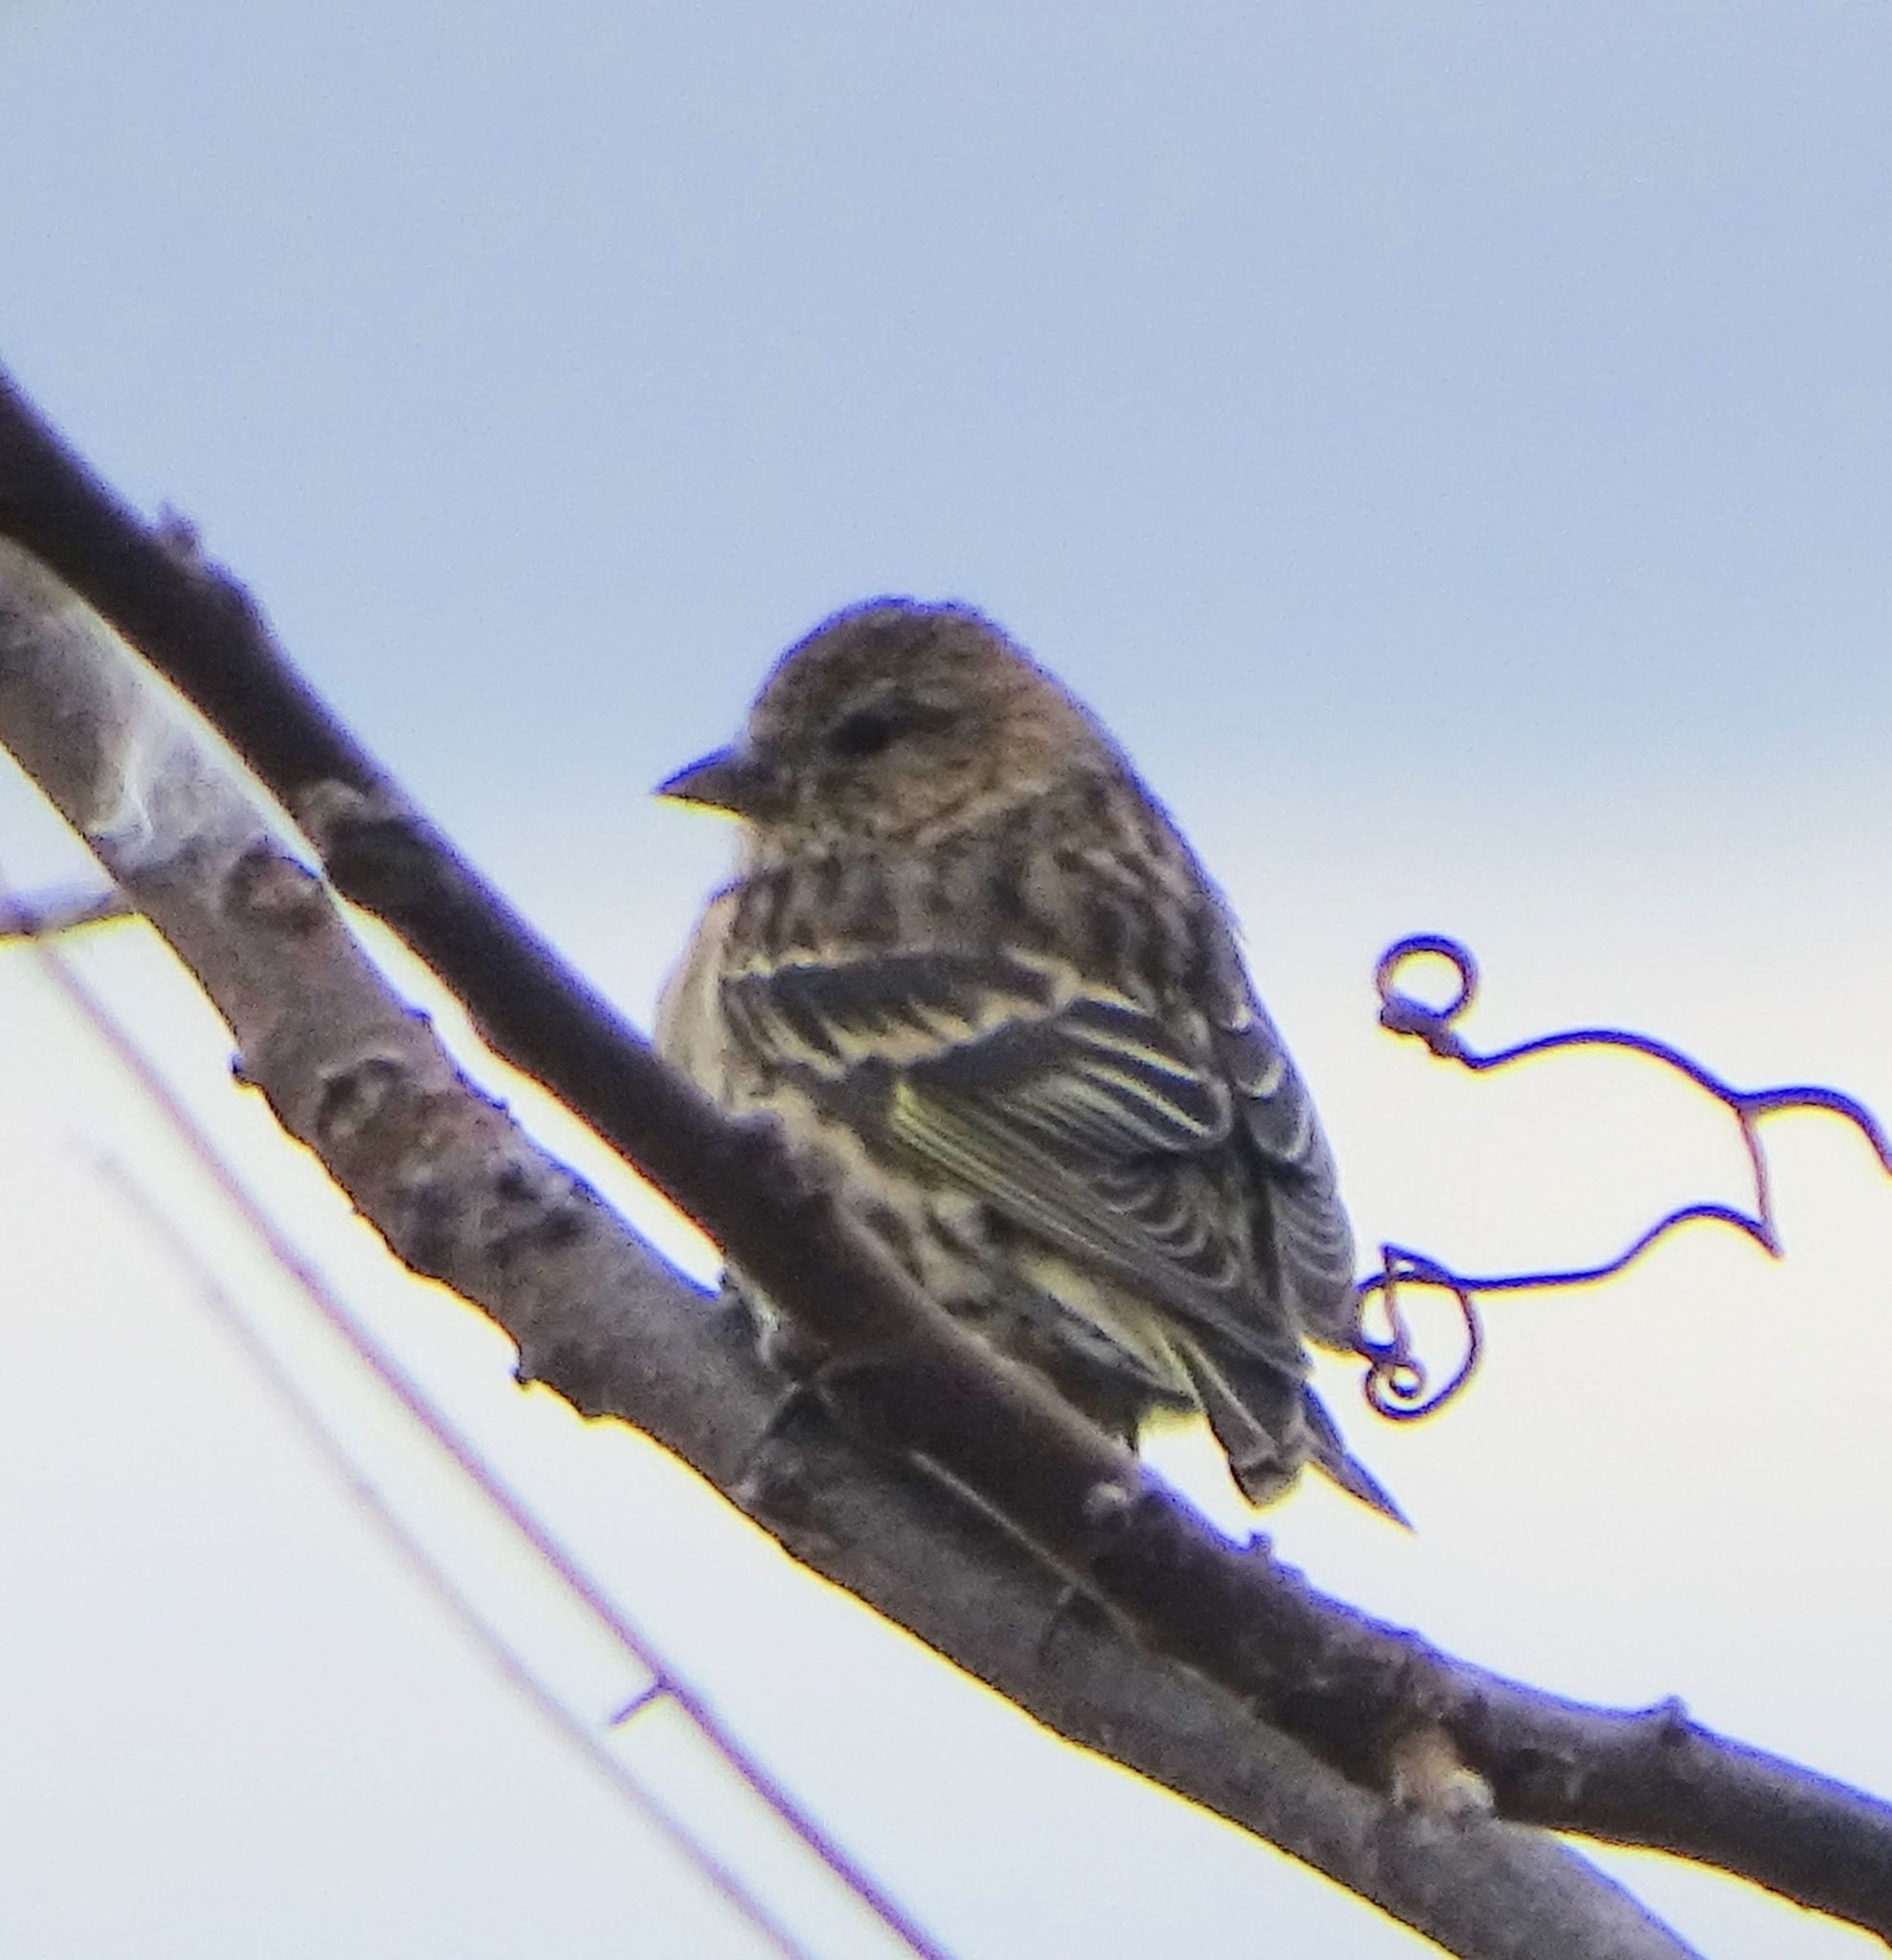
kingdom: Animalia
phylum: Chordata
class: Aves
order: Passeriformes
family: Fringillidae
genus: Spinus
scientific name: Spinus pinus
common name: Pine siskin
